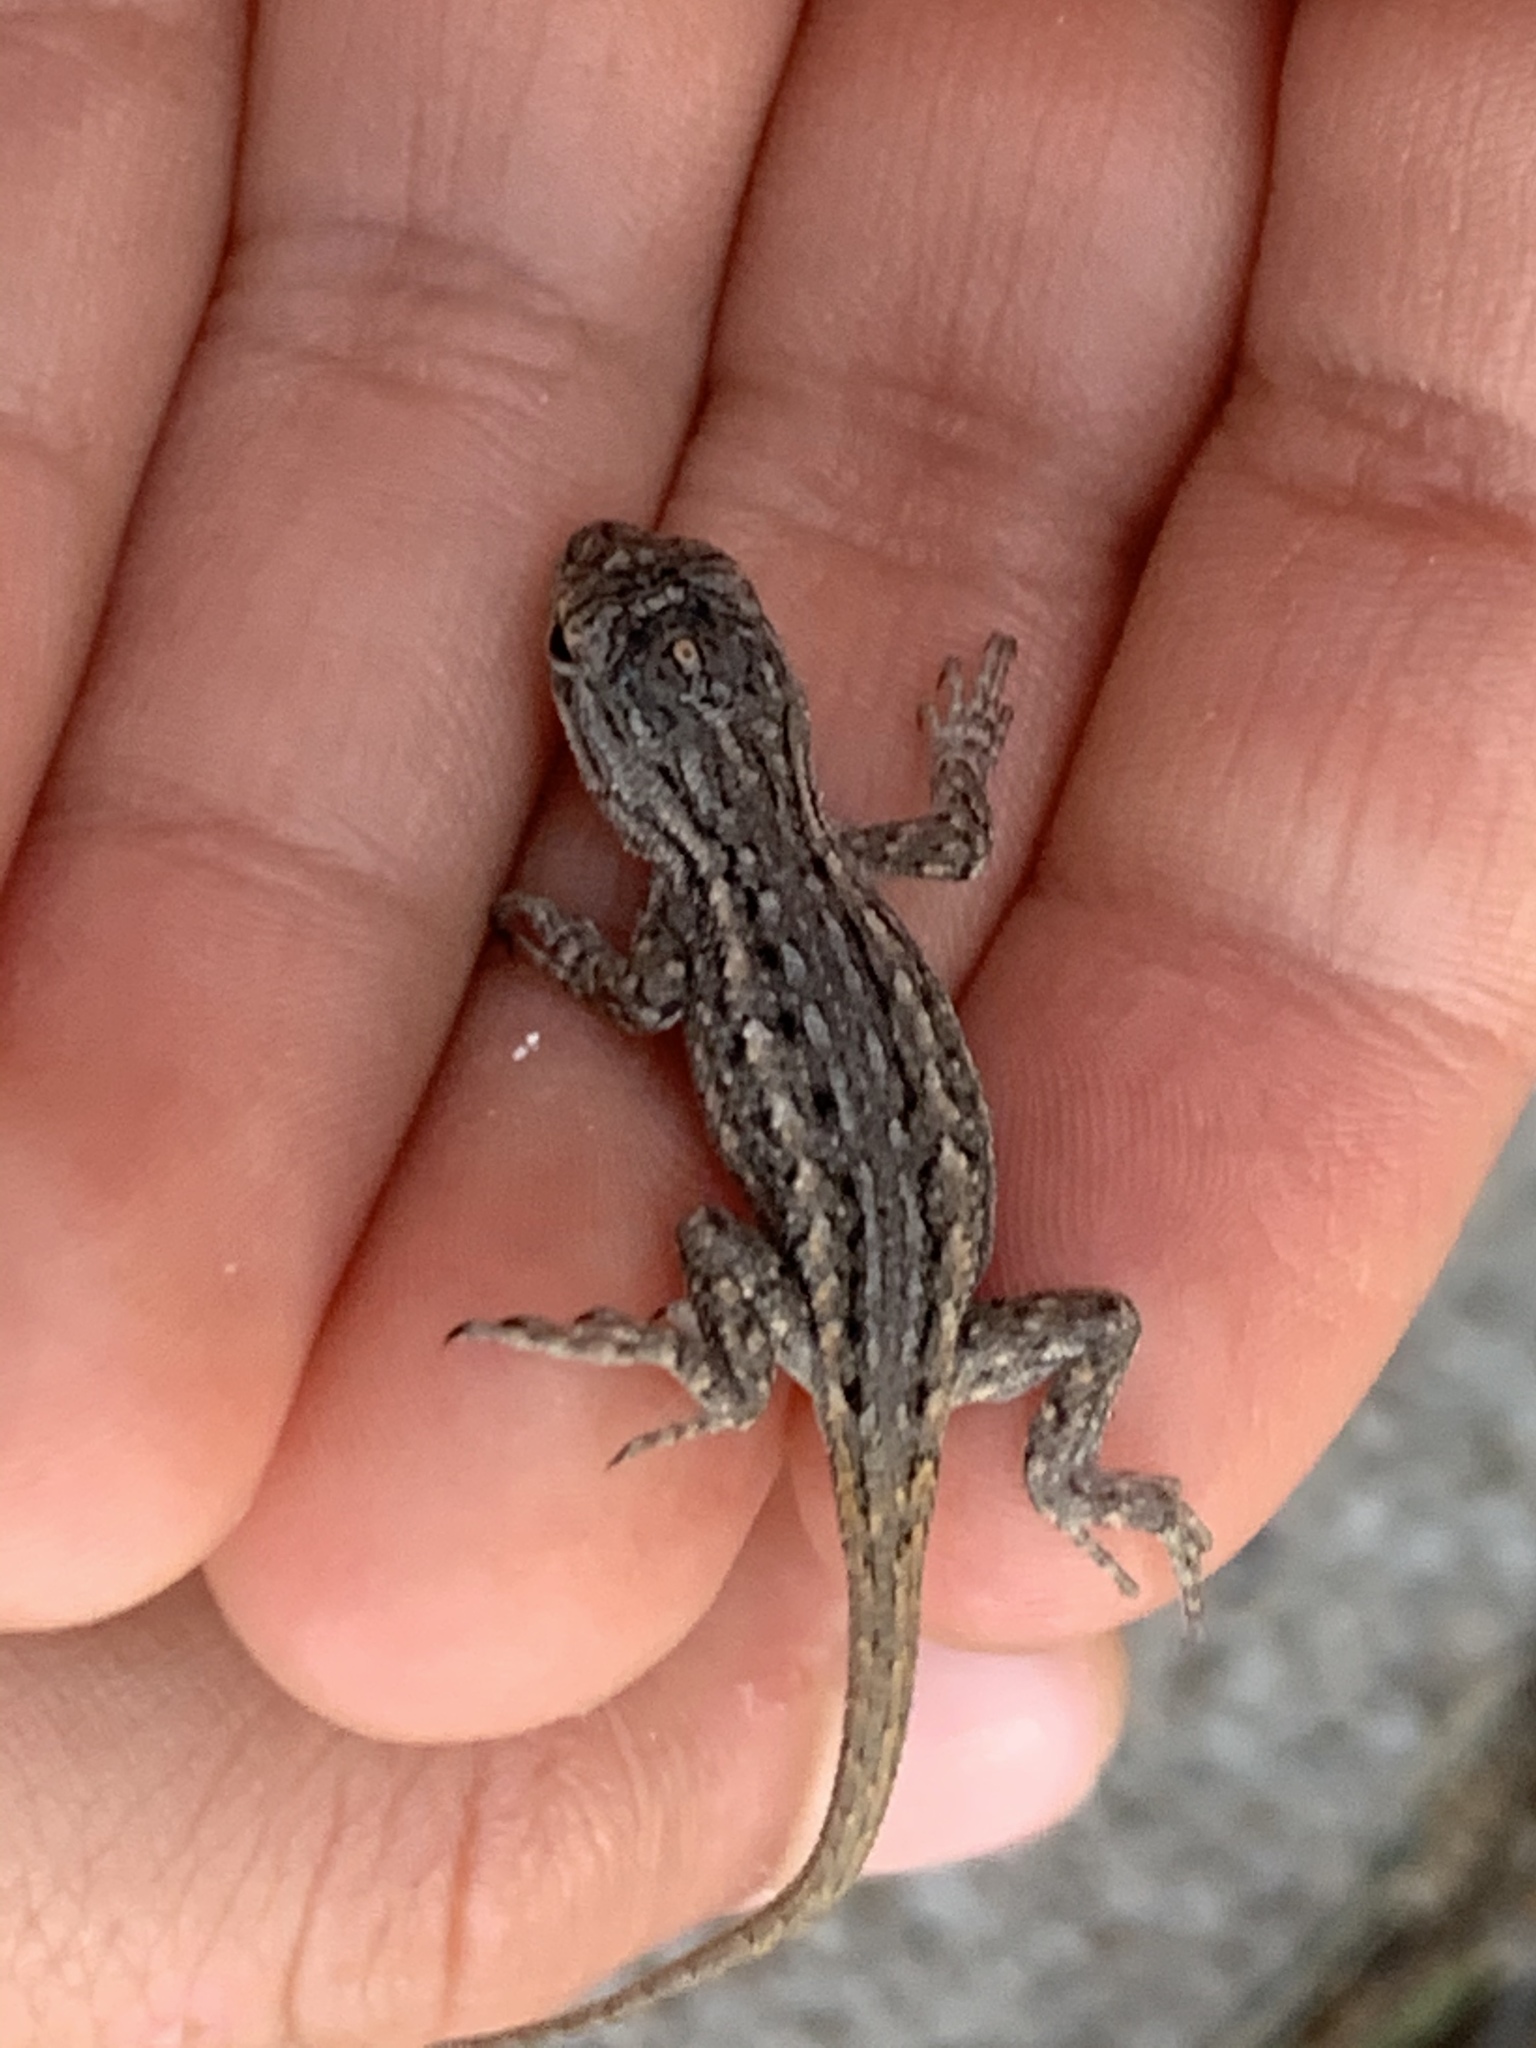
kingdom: Animalia
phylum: Chordata
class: Squamata
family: Phrynosomatidae
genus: Sceloporus
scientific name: Sceloporus cowlesi
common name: White sands prairie lizard
